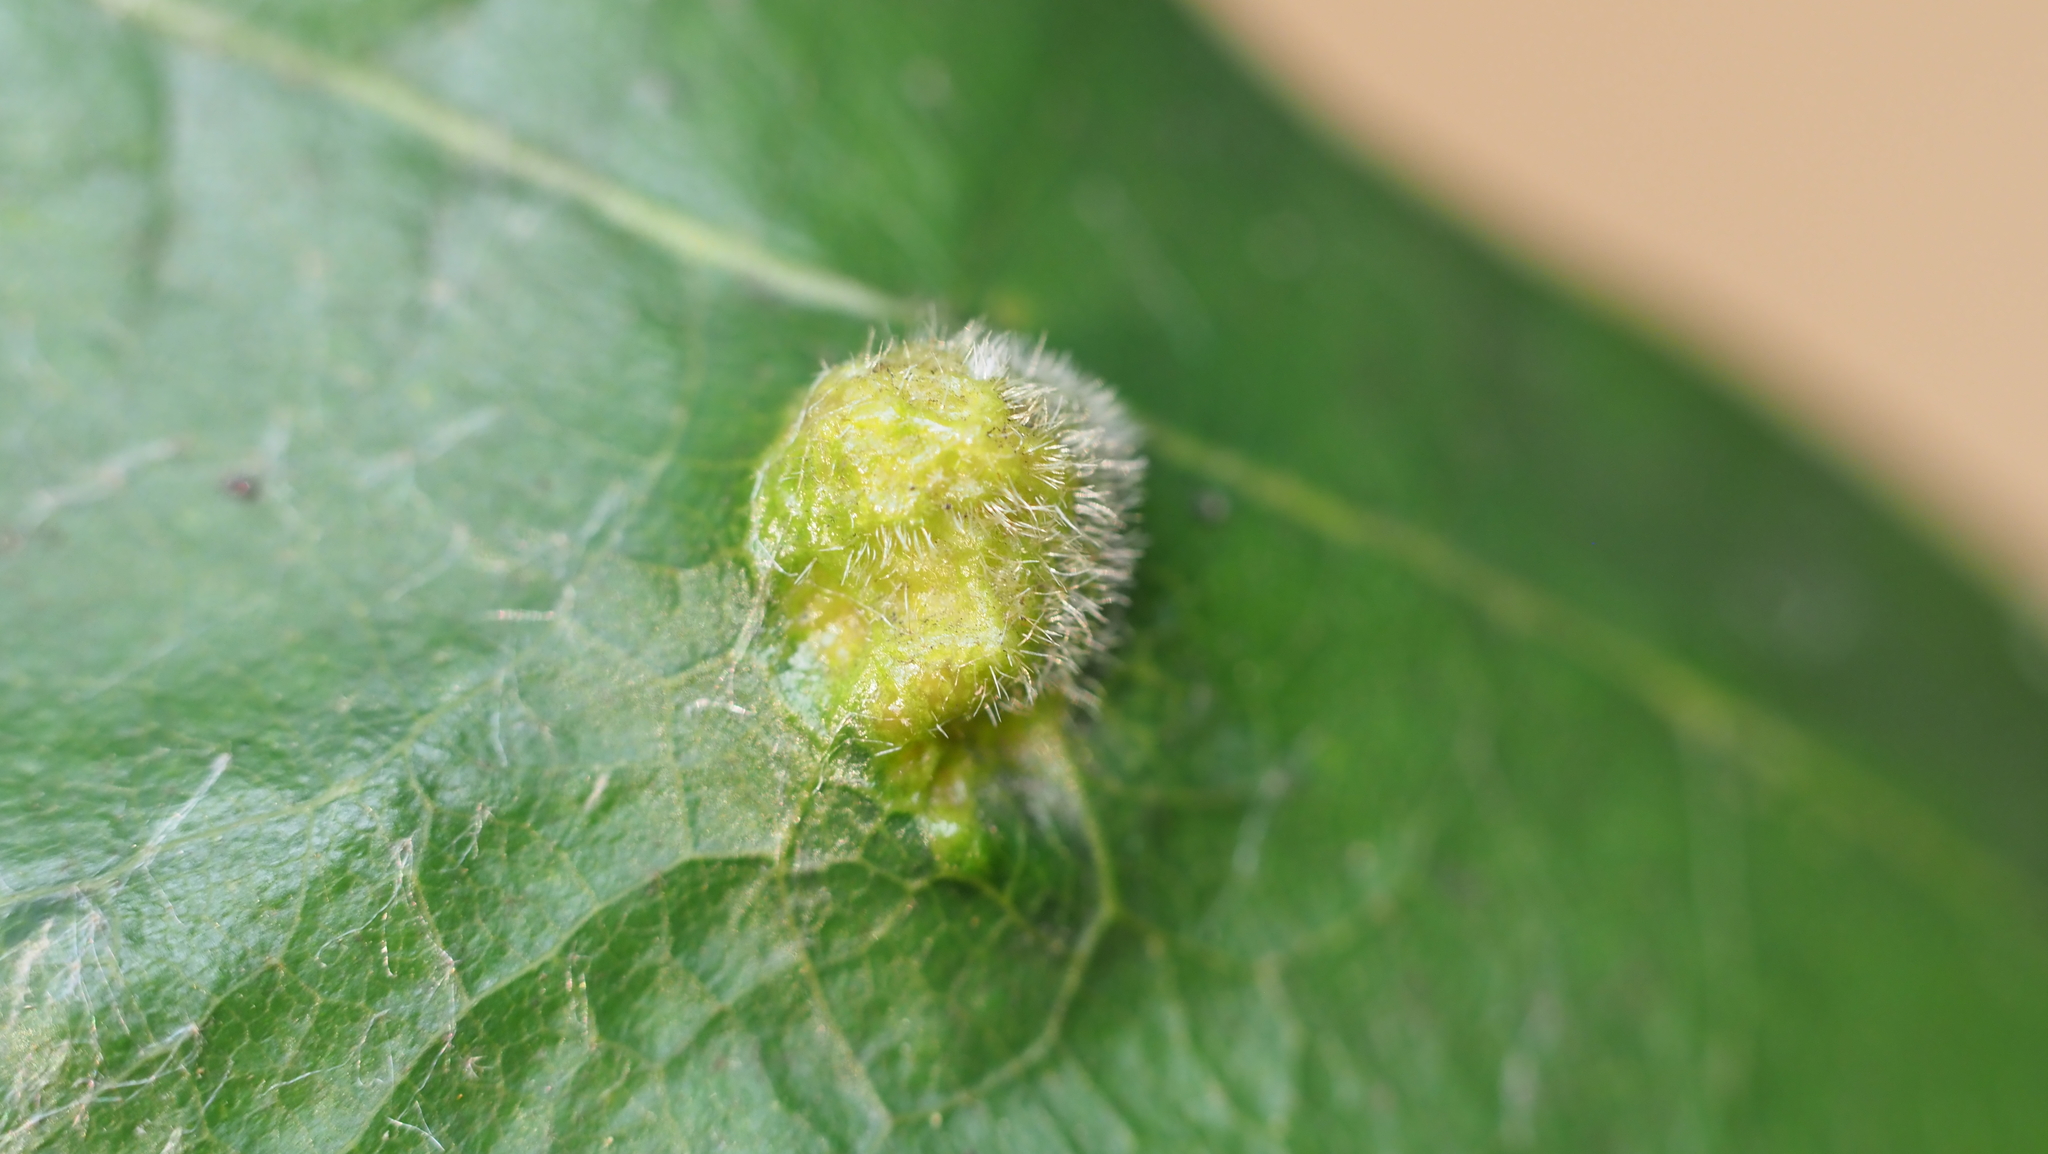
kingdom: Animalia
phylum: Arthropoda
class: Arachnida
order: Trombidiformes
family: Eriophyidae
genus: Aceria
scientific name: Aceria quercina
